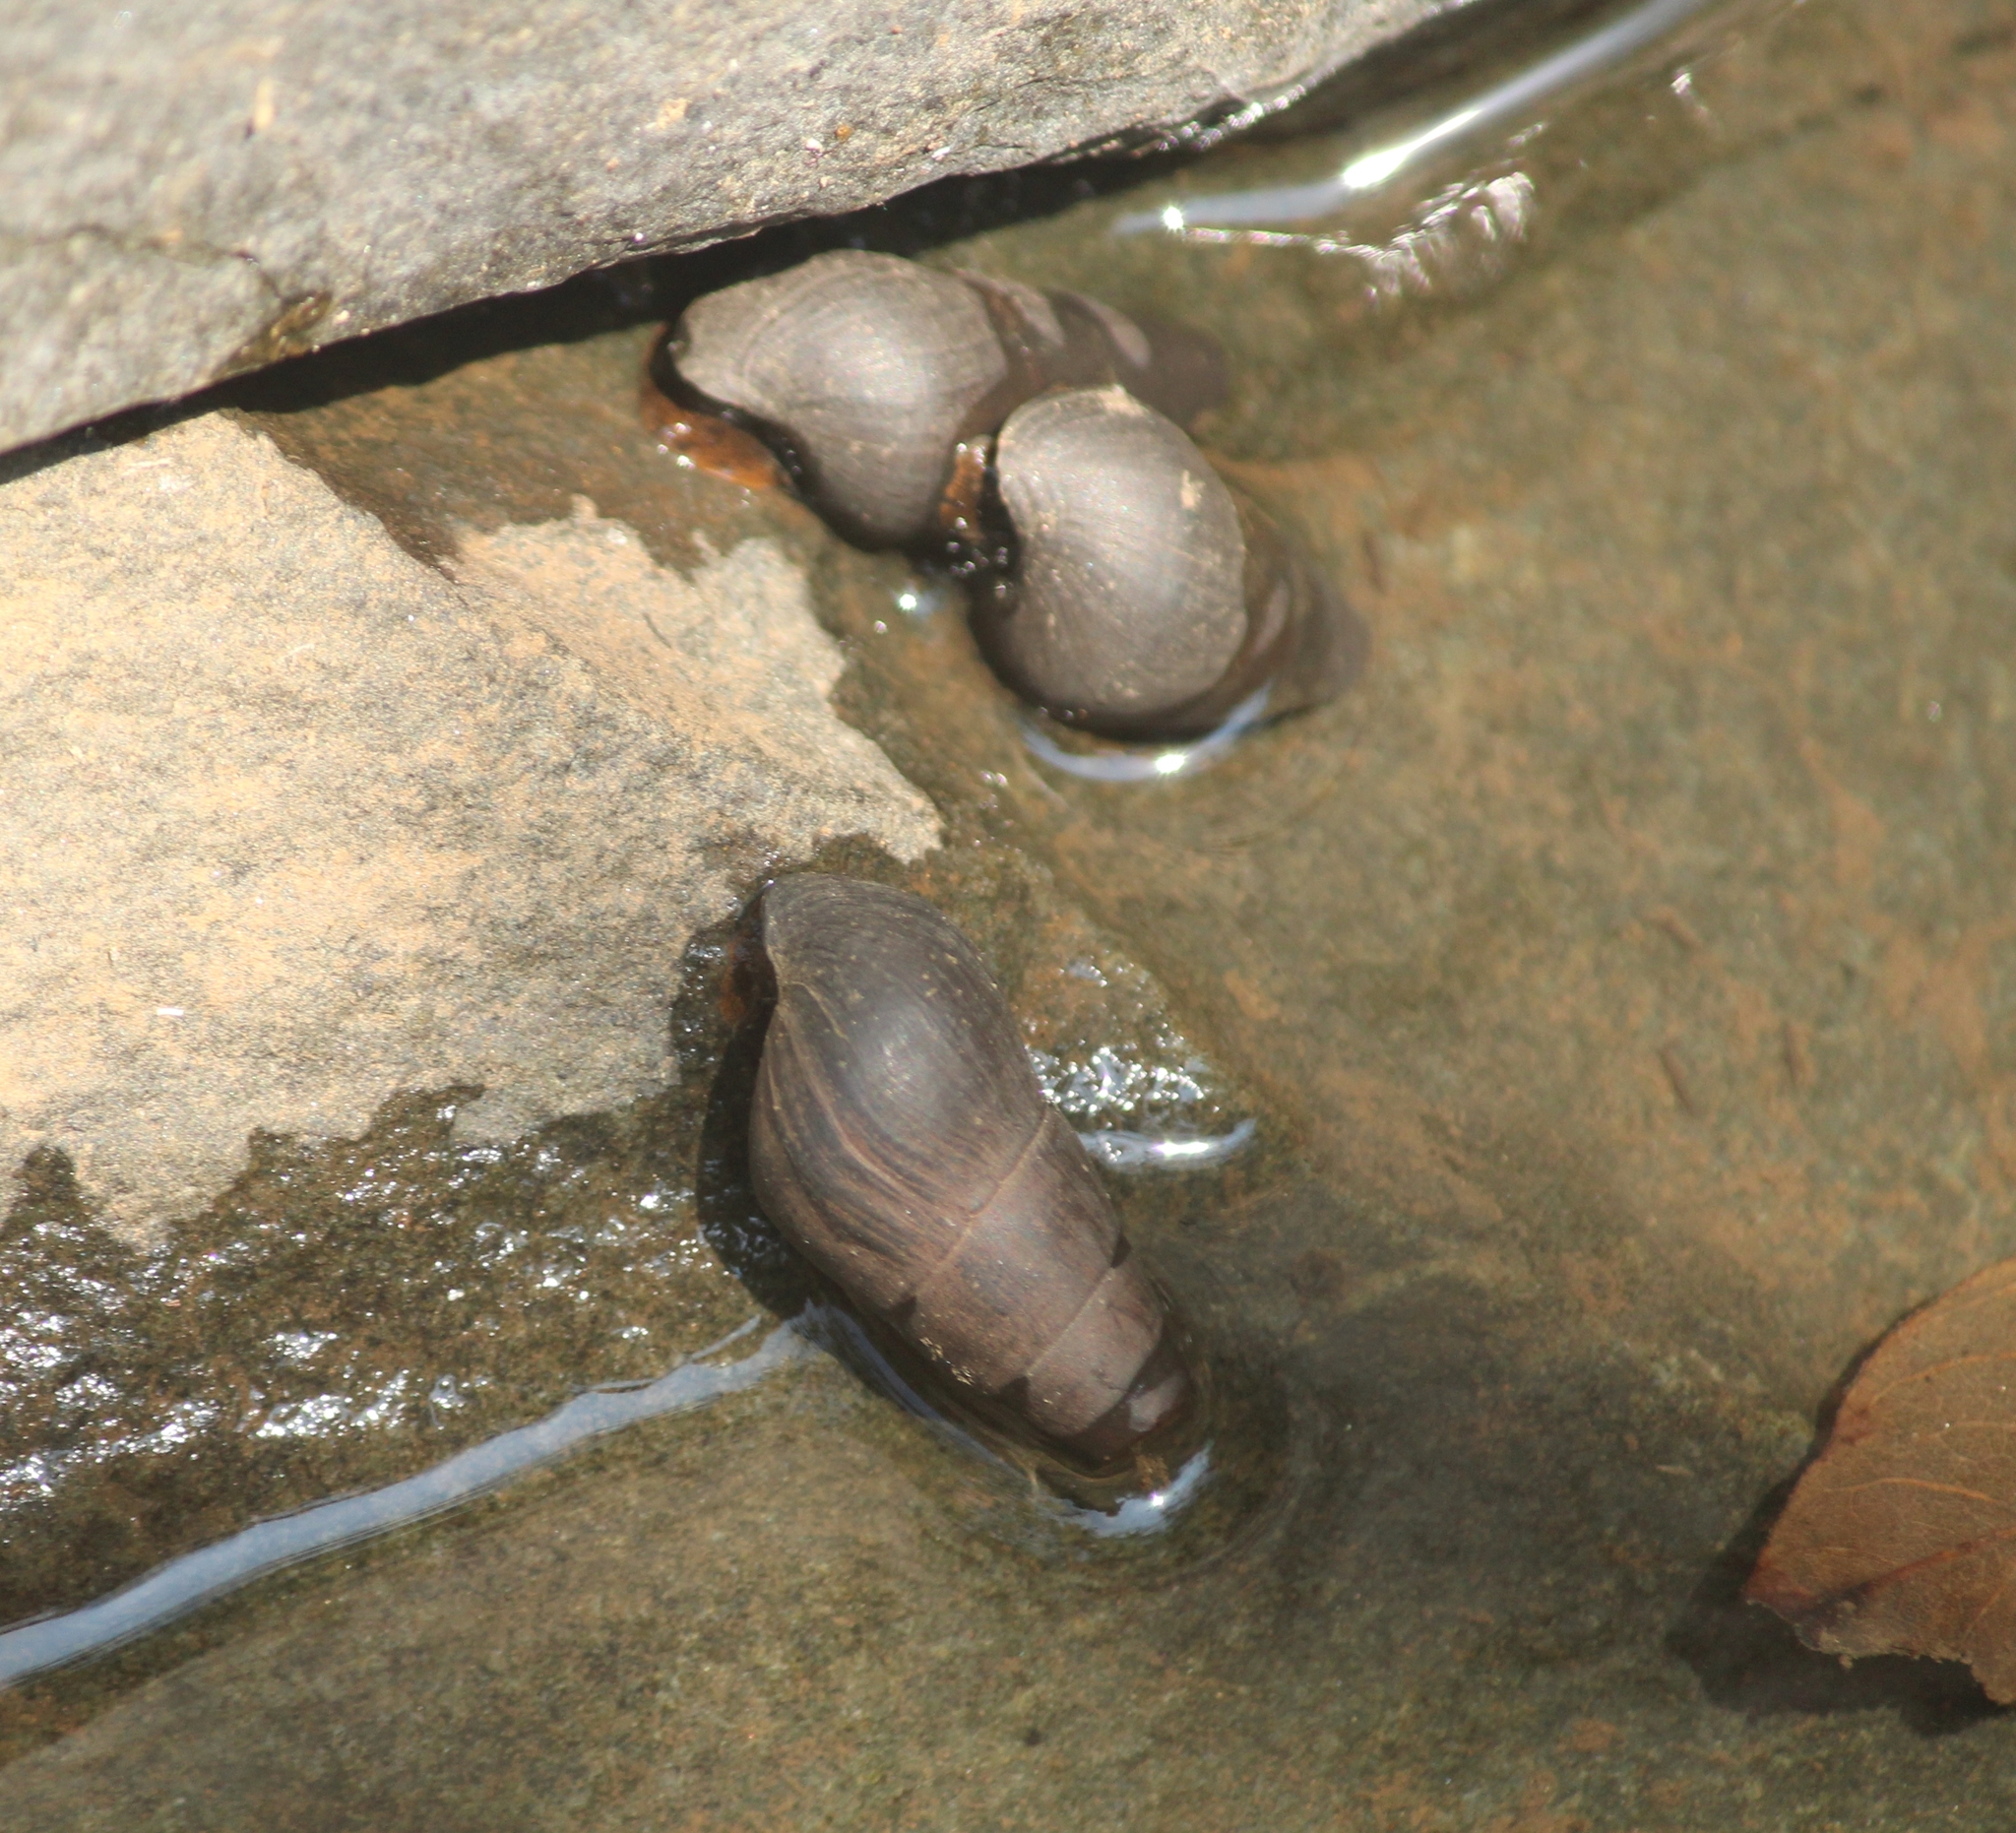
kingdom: Animalia
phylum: Mollusca
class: Gastropoda
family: Pachychilidae
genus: Paracrostoma
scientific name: Paracrostoma huegelii
